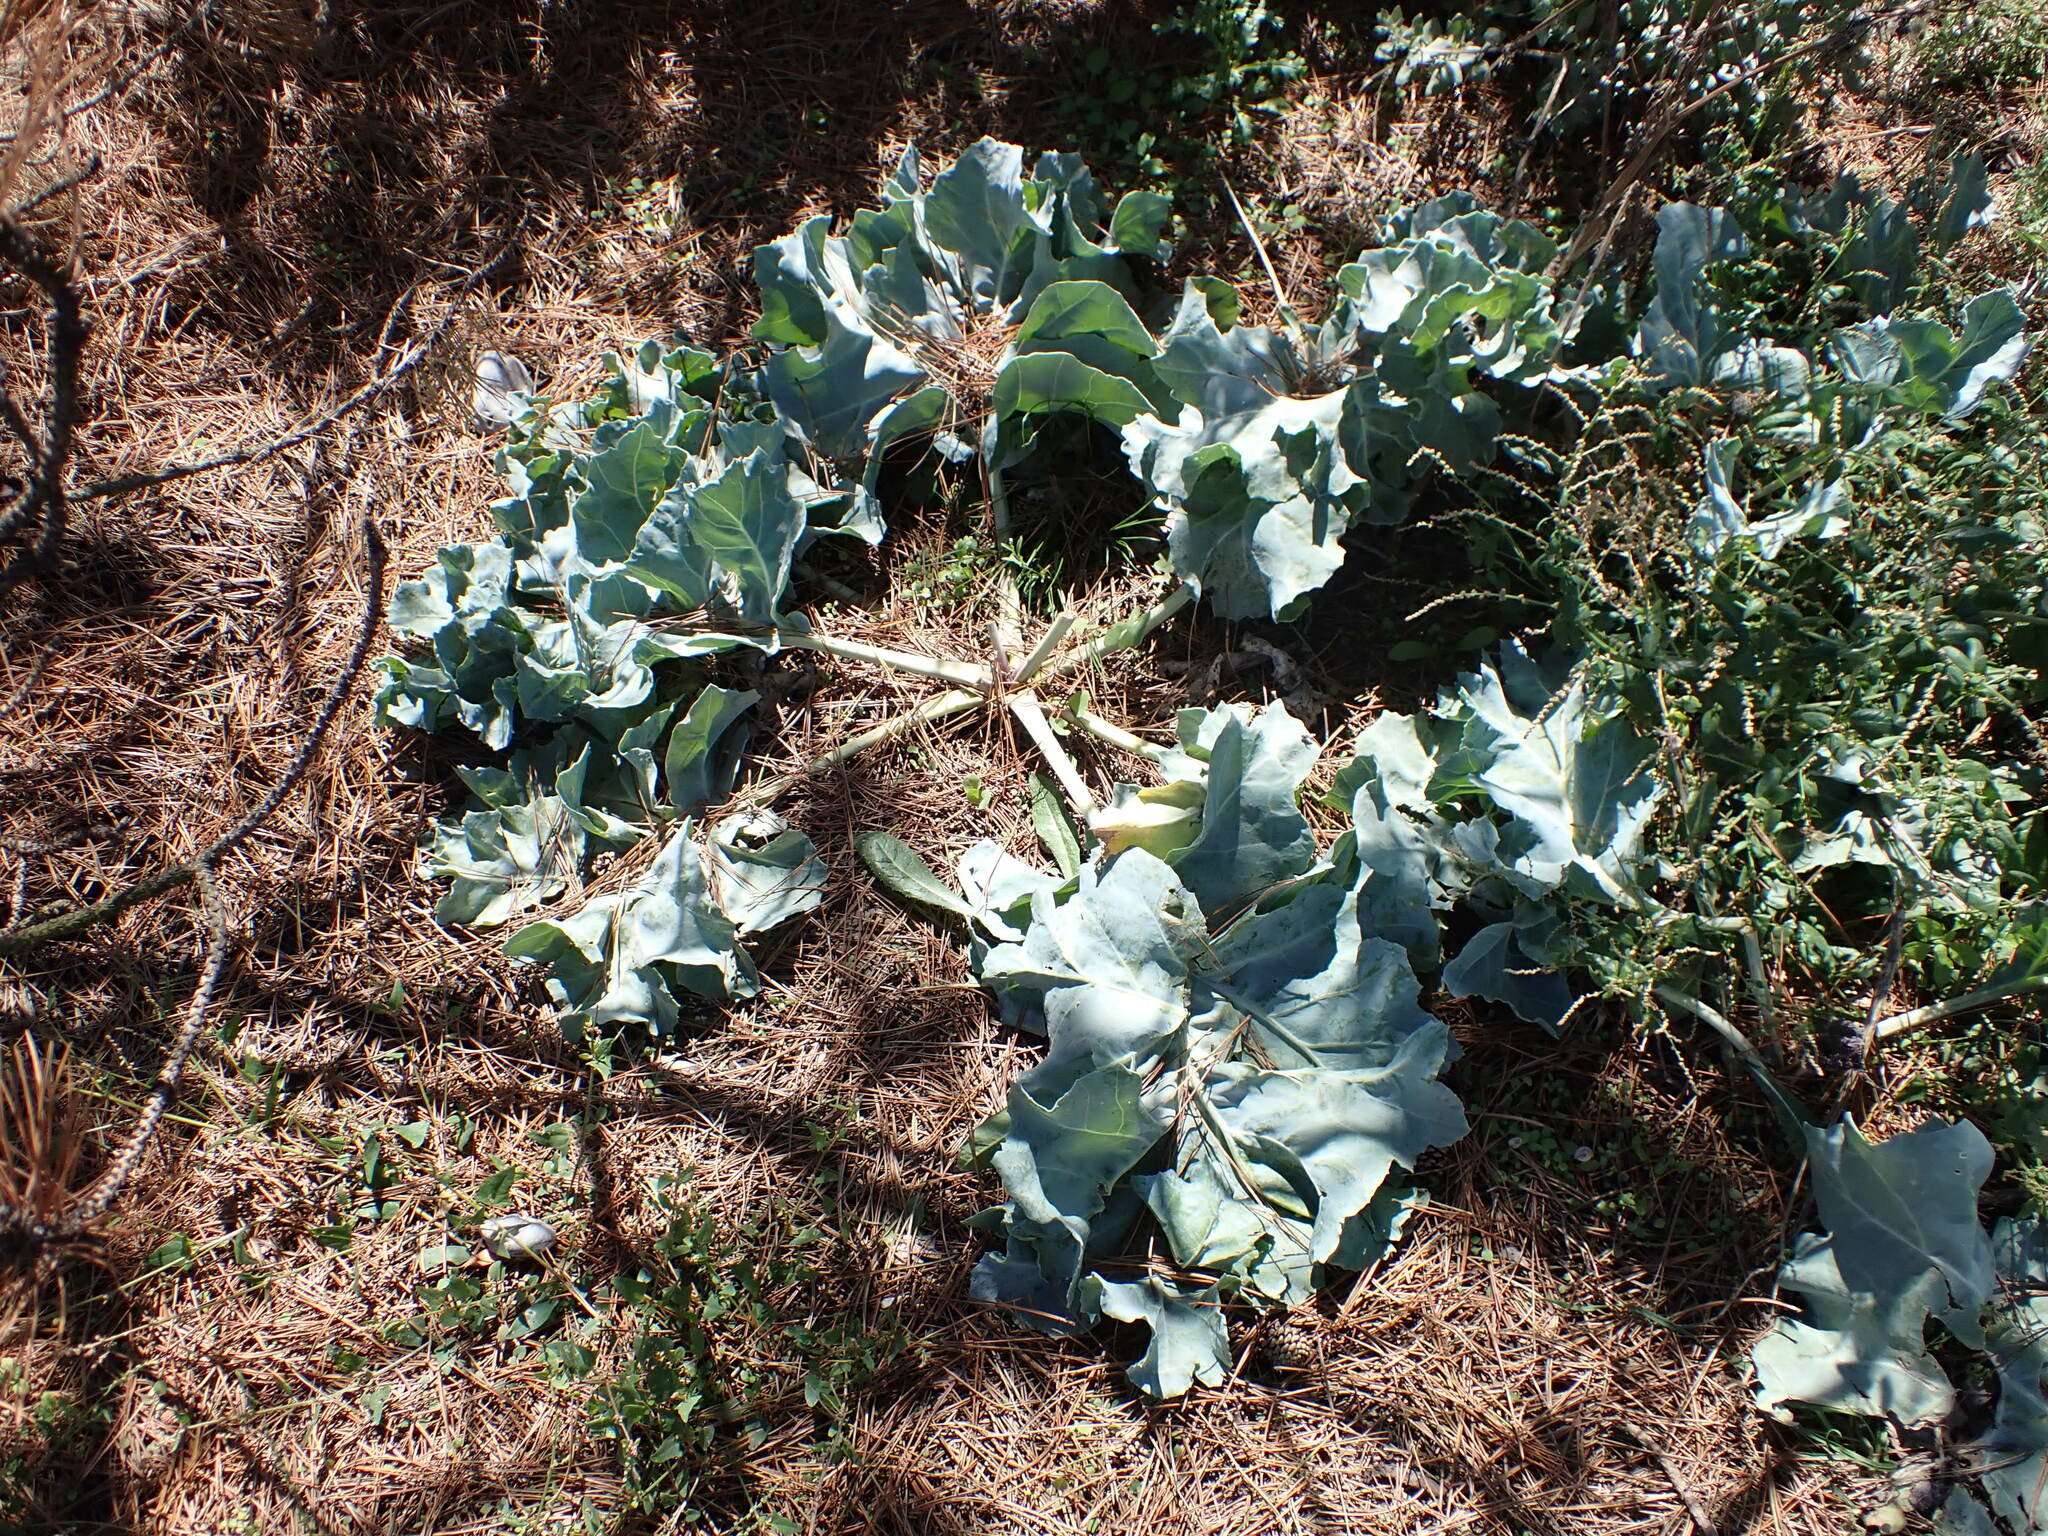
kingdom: Plantae
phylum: Tracheophyta
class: Magnoliopsida
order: Brassicales
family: Brassicaceae
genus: Crambe
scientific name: Crambe maritima
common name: Sea-kale
